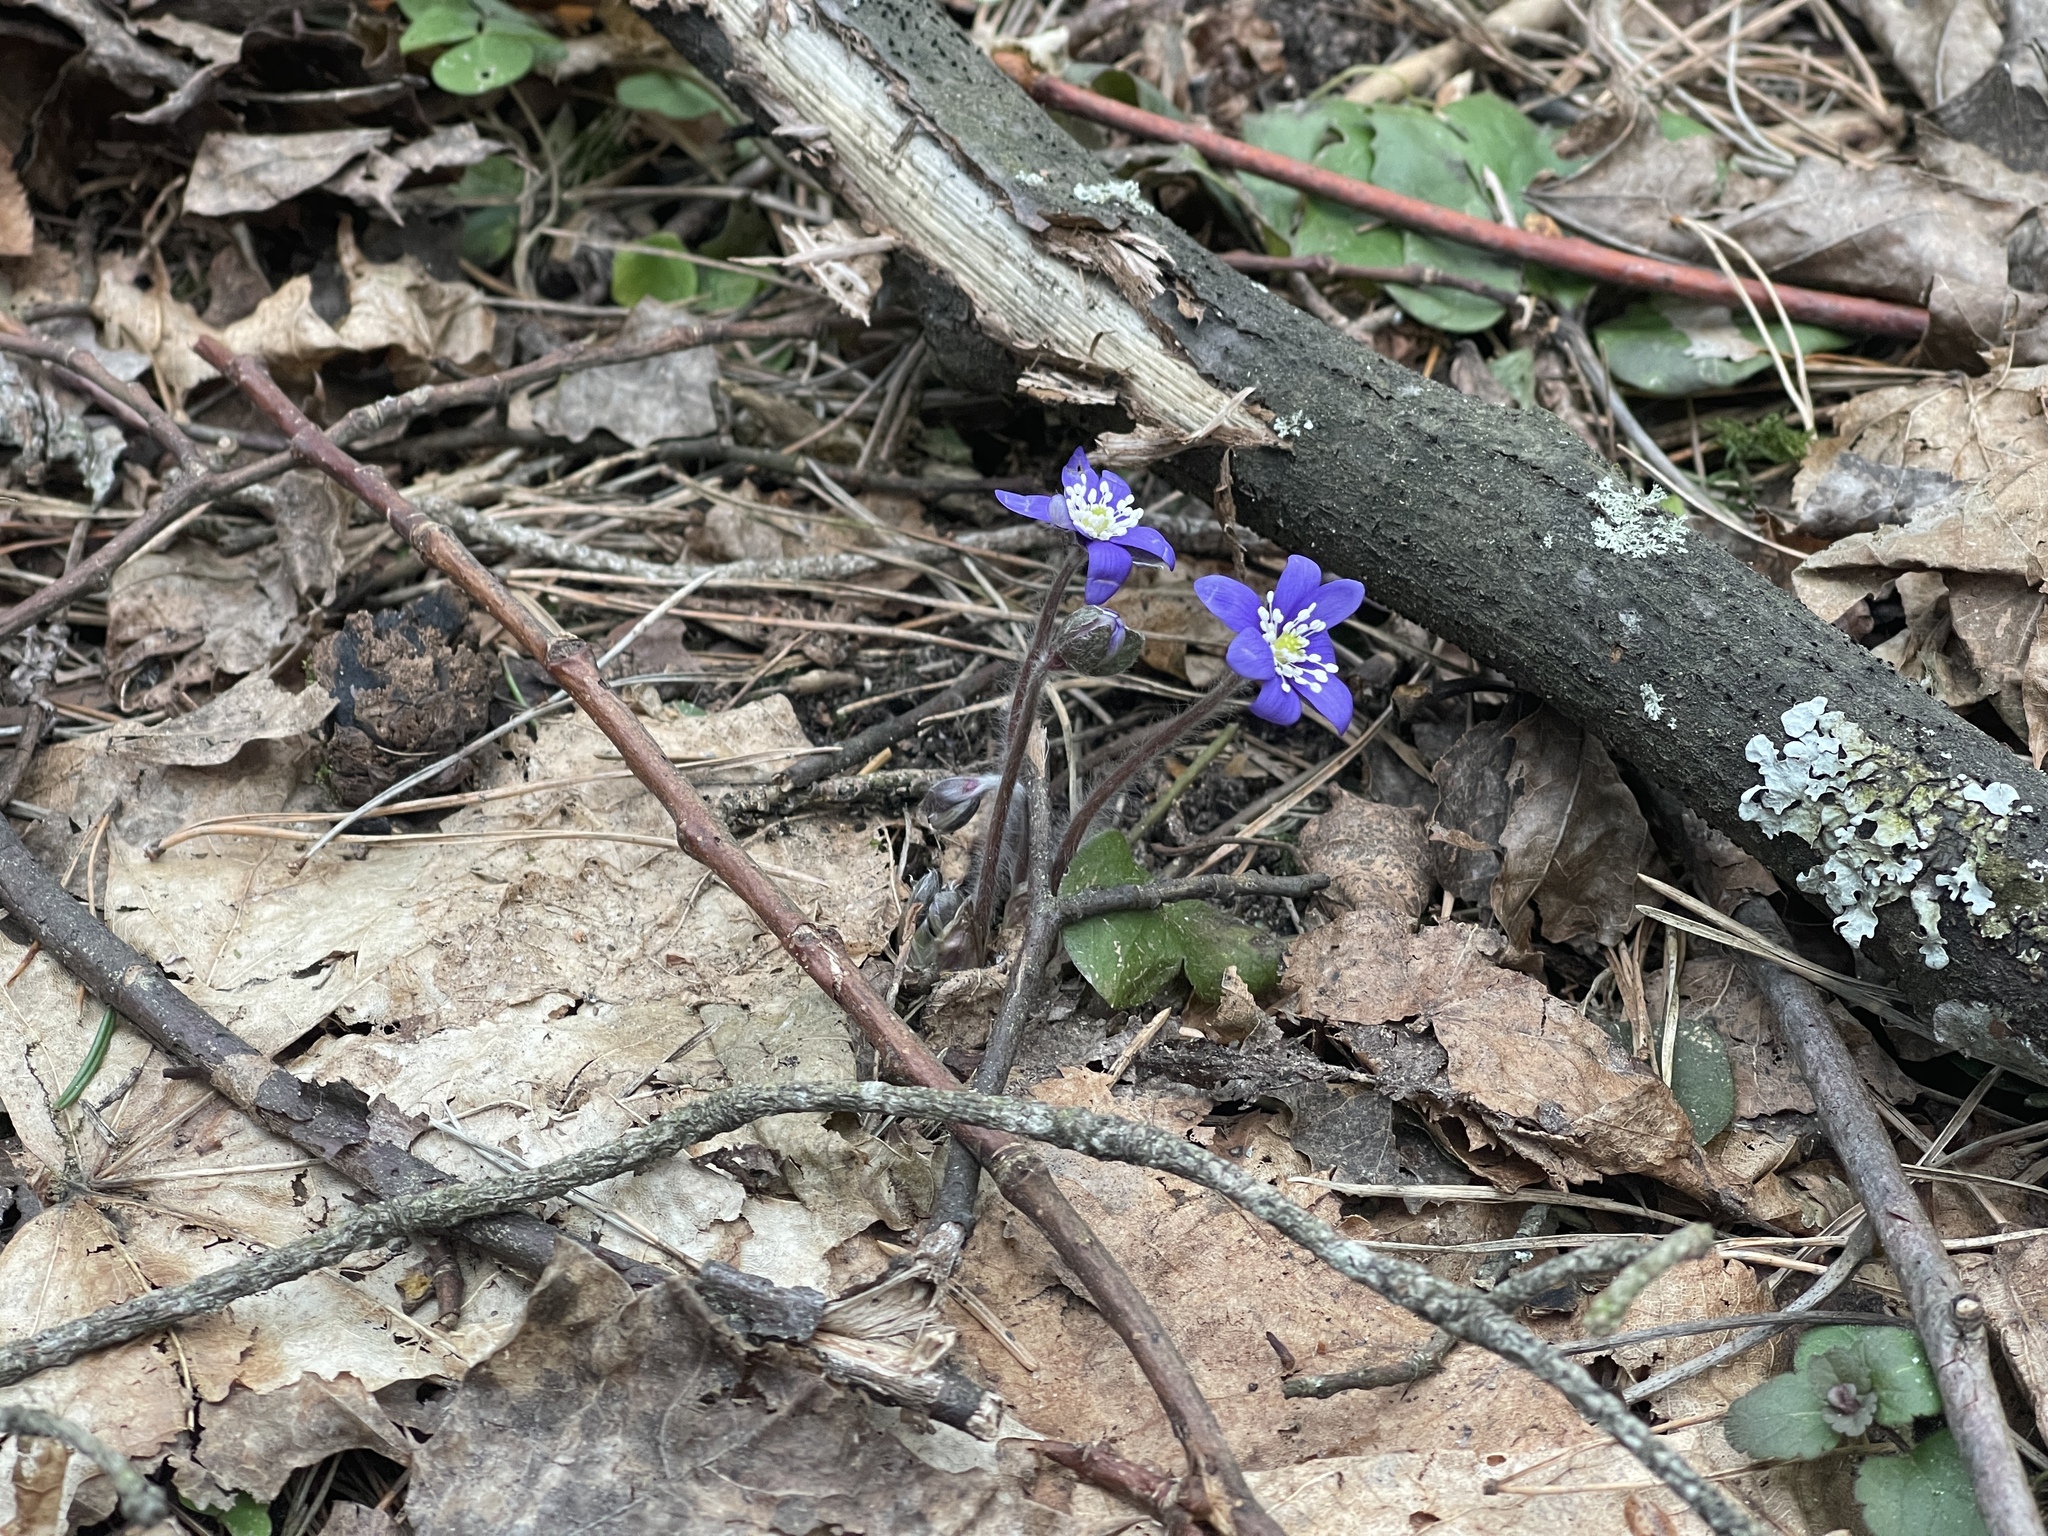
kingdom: Plantae
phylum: Tracheophyta
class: Magnoliopsida
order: Ranunculales
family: Ranunculaceae
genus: Hepatica
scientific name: Hepatica nobilis
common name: Liverleaf
